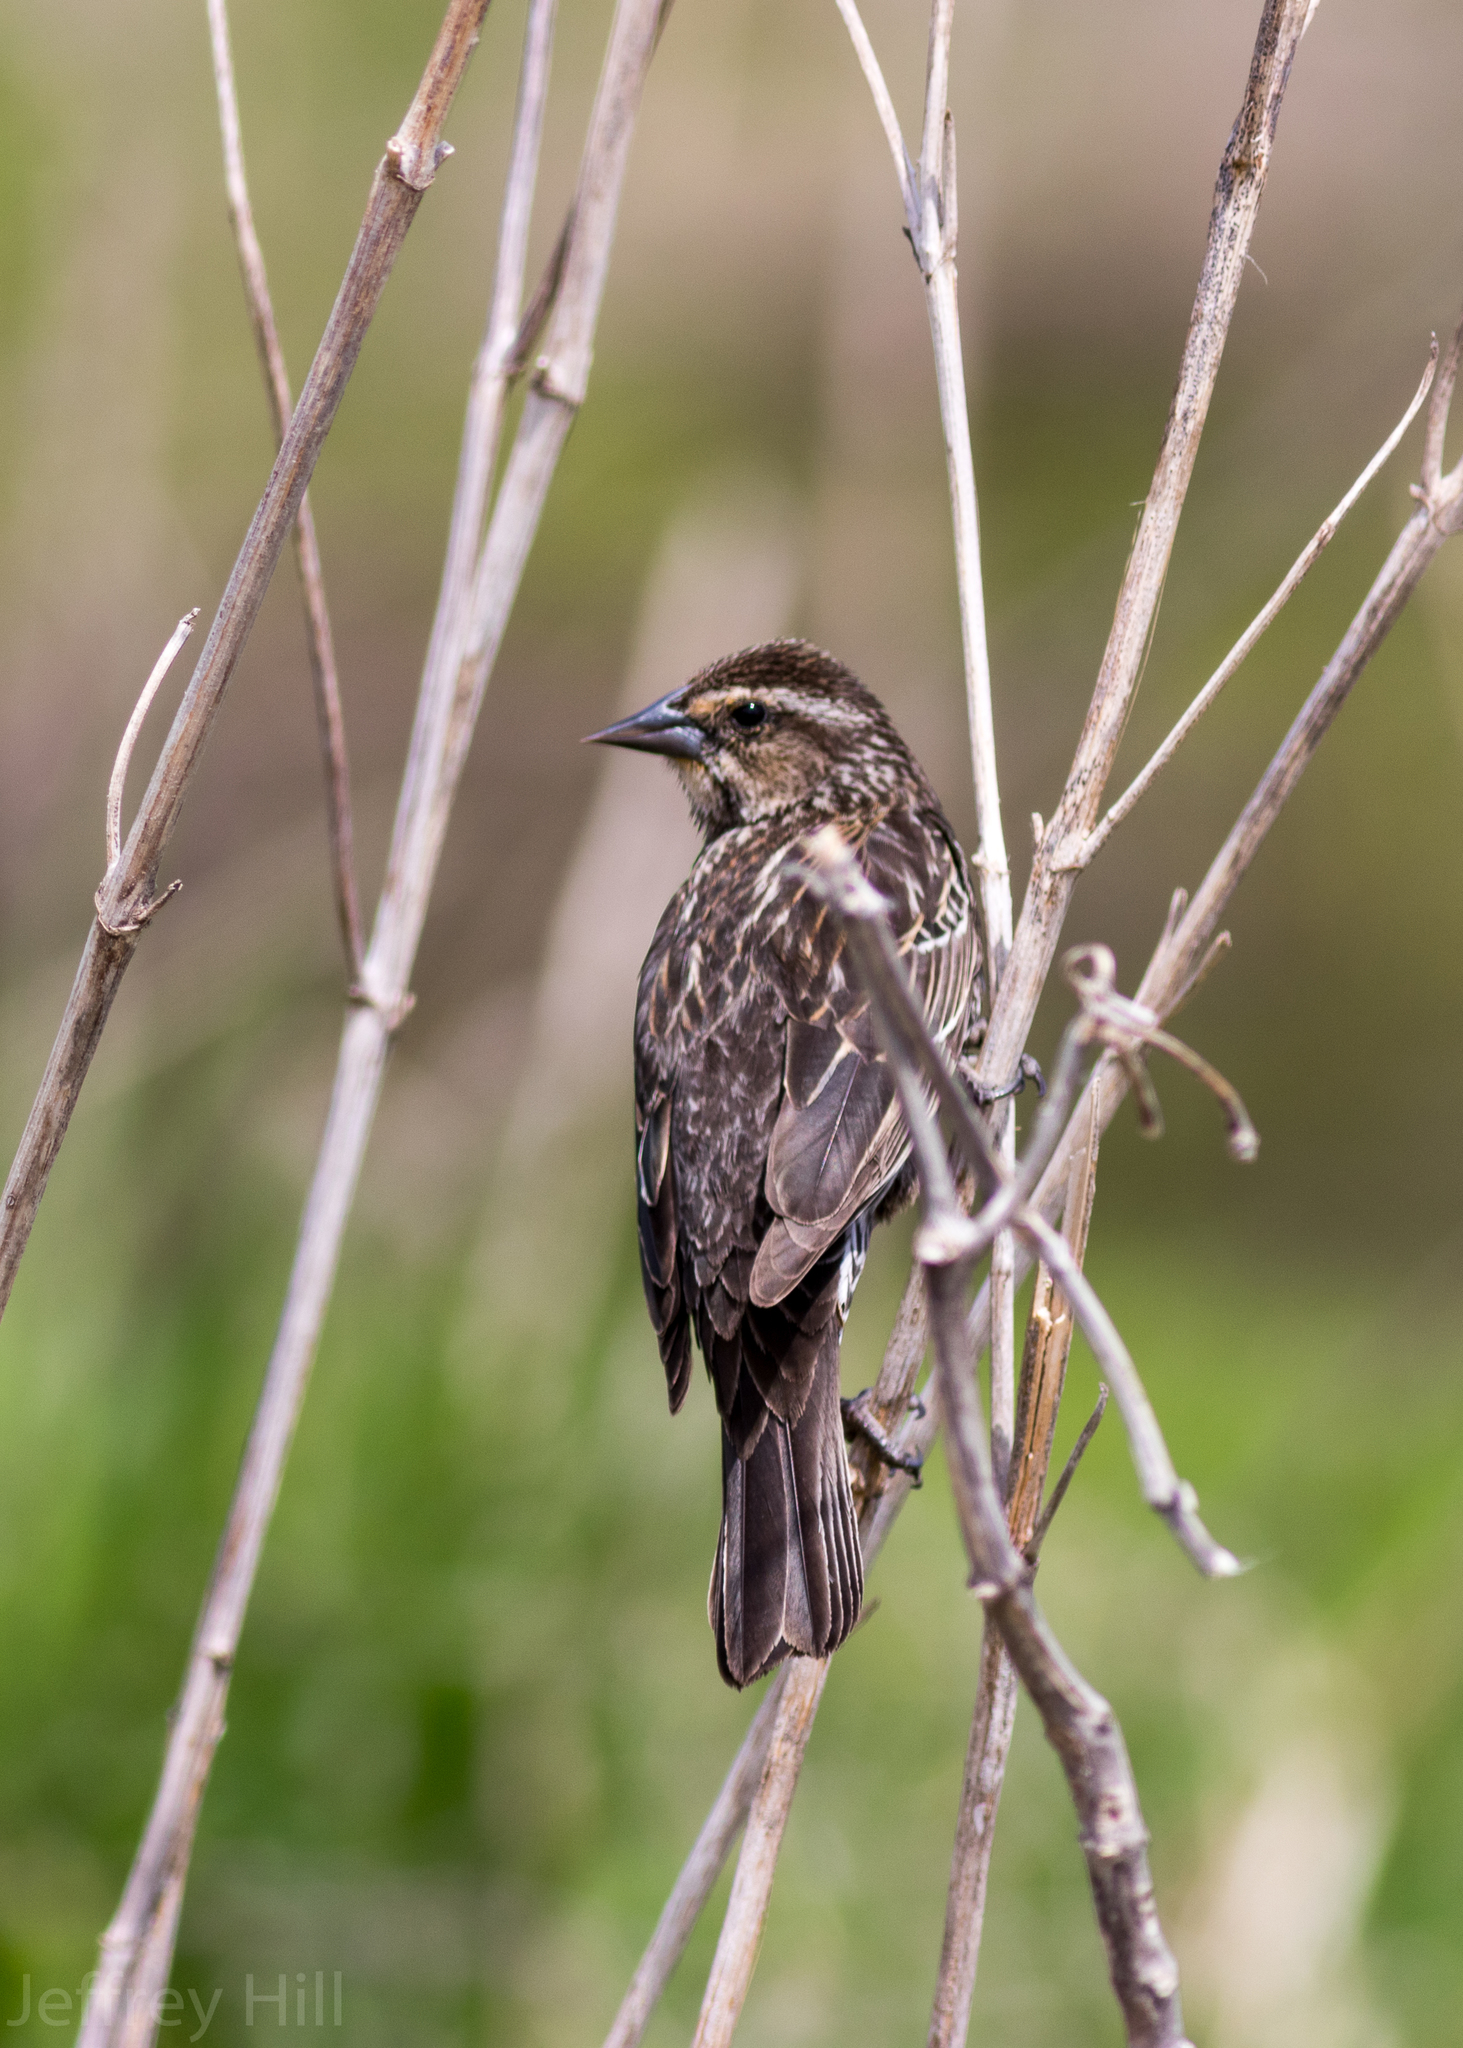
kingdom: Animalia
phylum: Chordata
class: Aves
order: Passeriformes
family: Icteridae
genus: Agelaius
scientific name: Agelaius phoeniceus
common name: Red-winged blackbird
